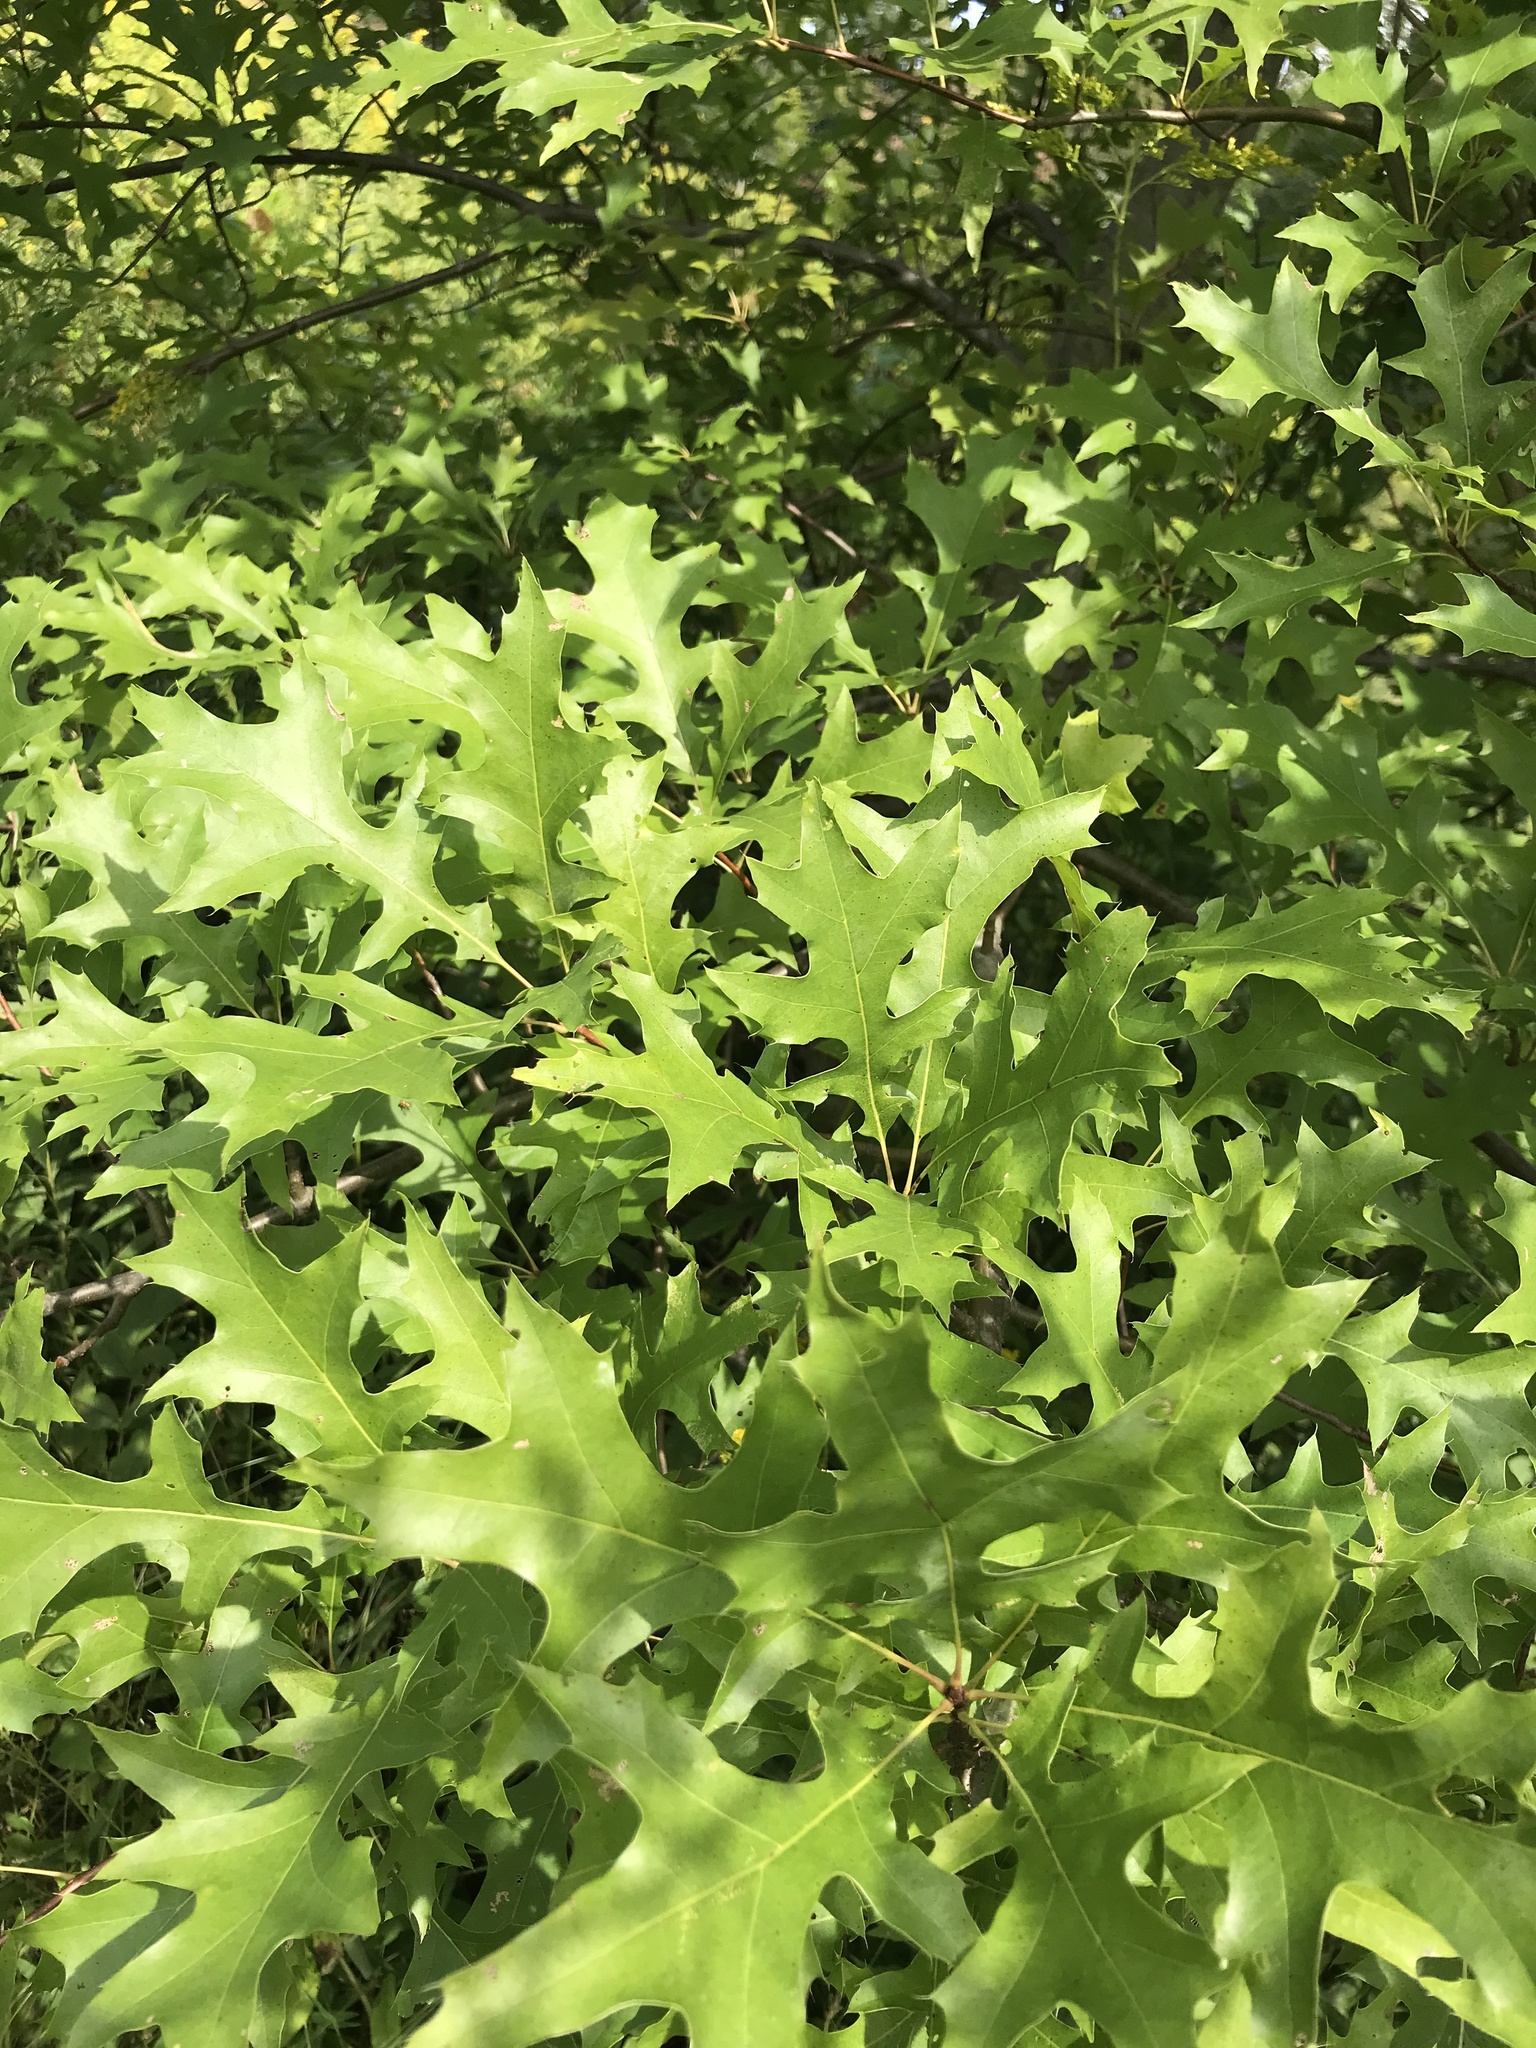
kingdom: Plantae
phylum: Tracheophyta
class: Magnoliopsida
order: Fagales
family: Fagaceae
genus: Quercus
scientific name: Quercus palustris
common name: Pin oak
